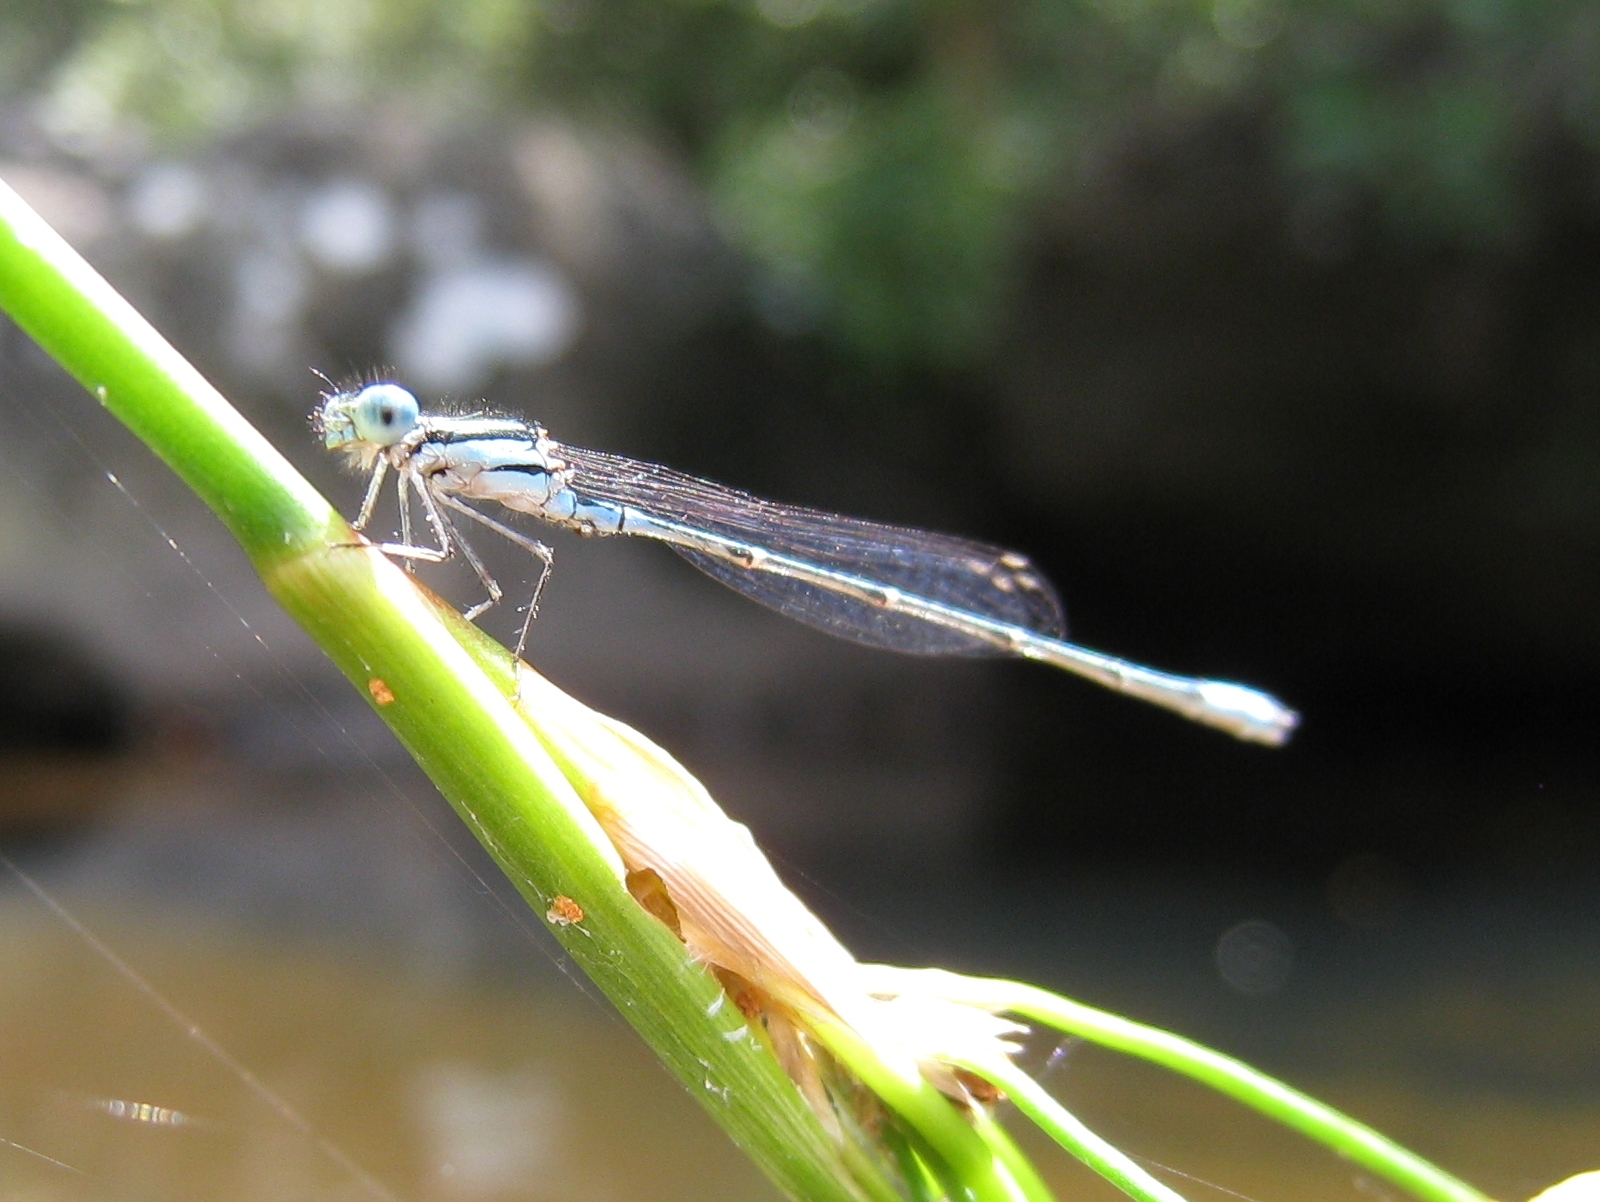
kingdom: Animalia
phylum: Arthropoda
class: Insecta
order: Odonata
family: Coenagrionidae
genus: Austroagrion
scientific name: Austroagrion watsoni
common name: Eastern billabongfly
